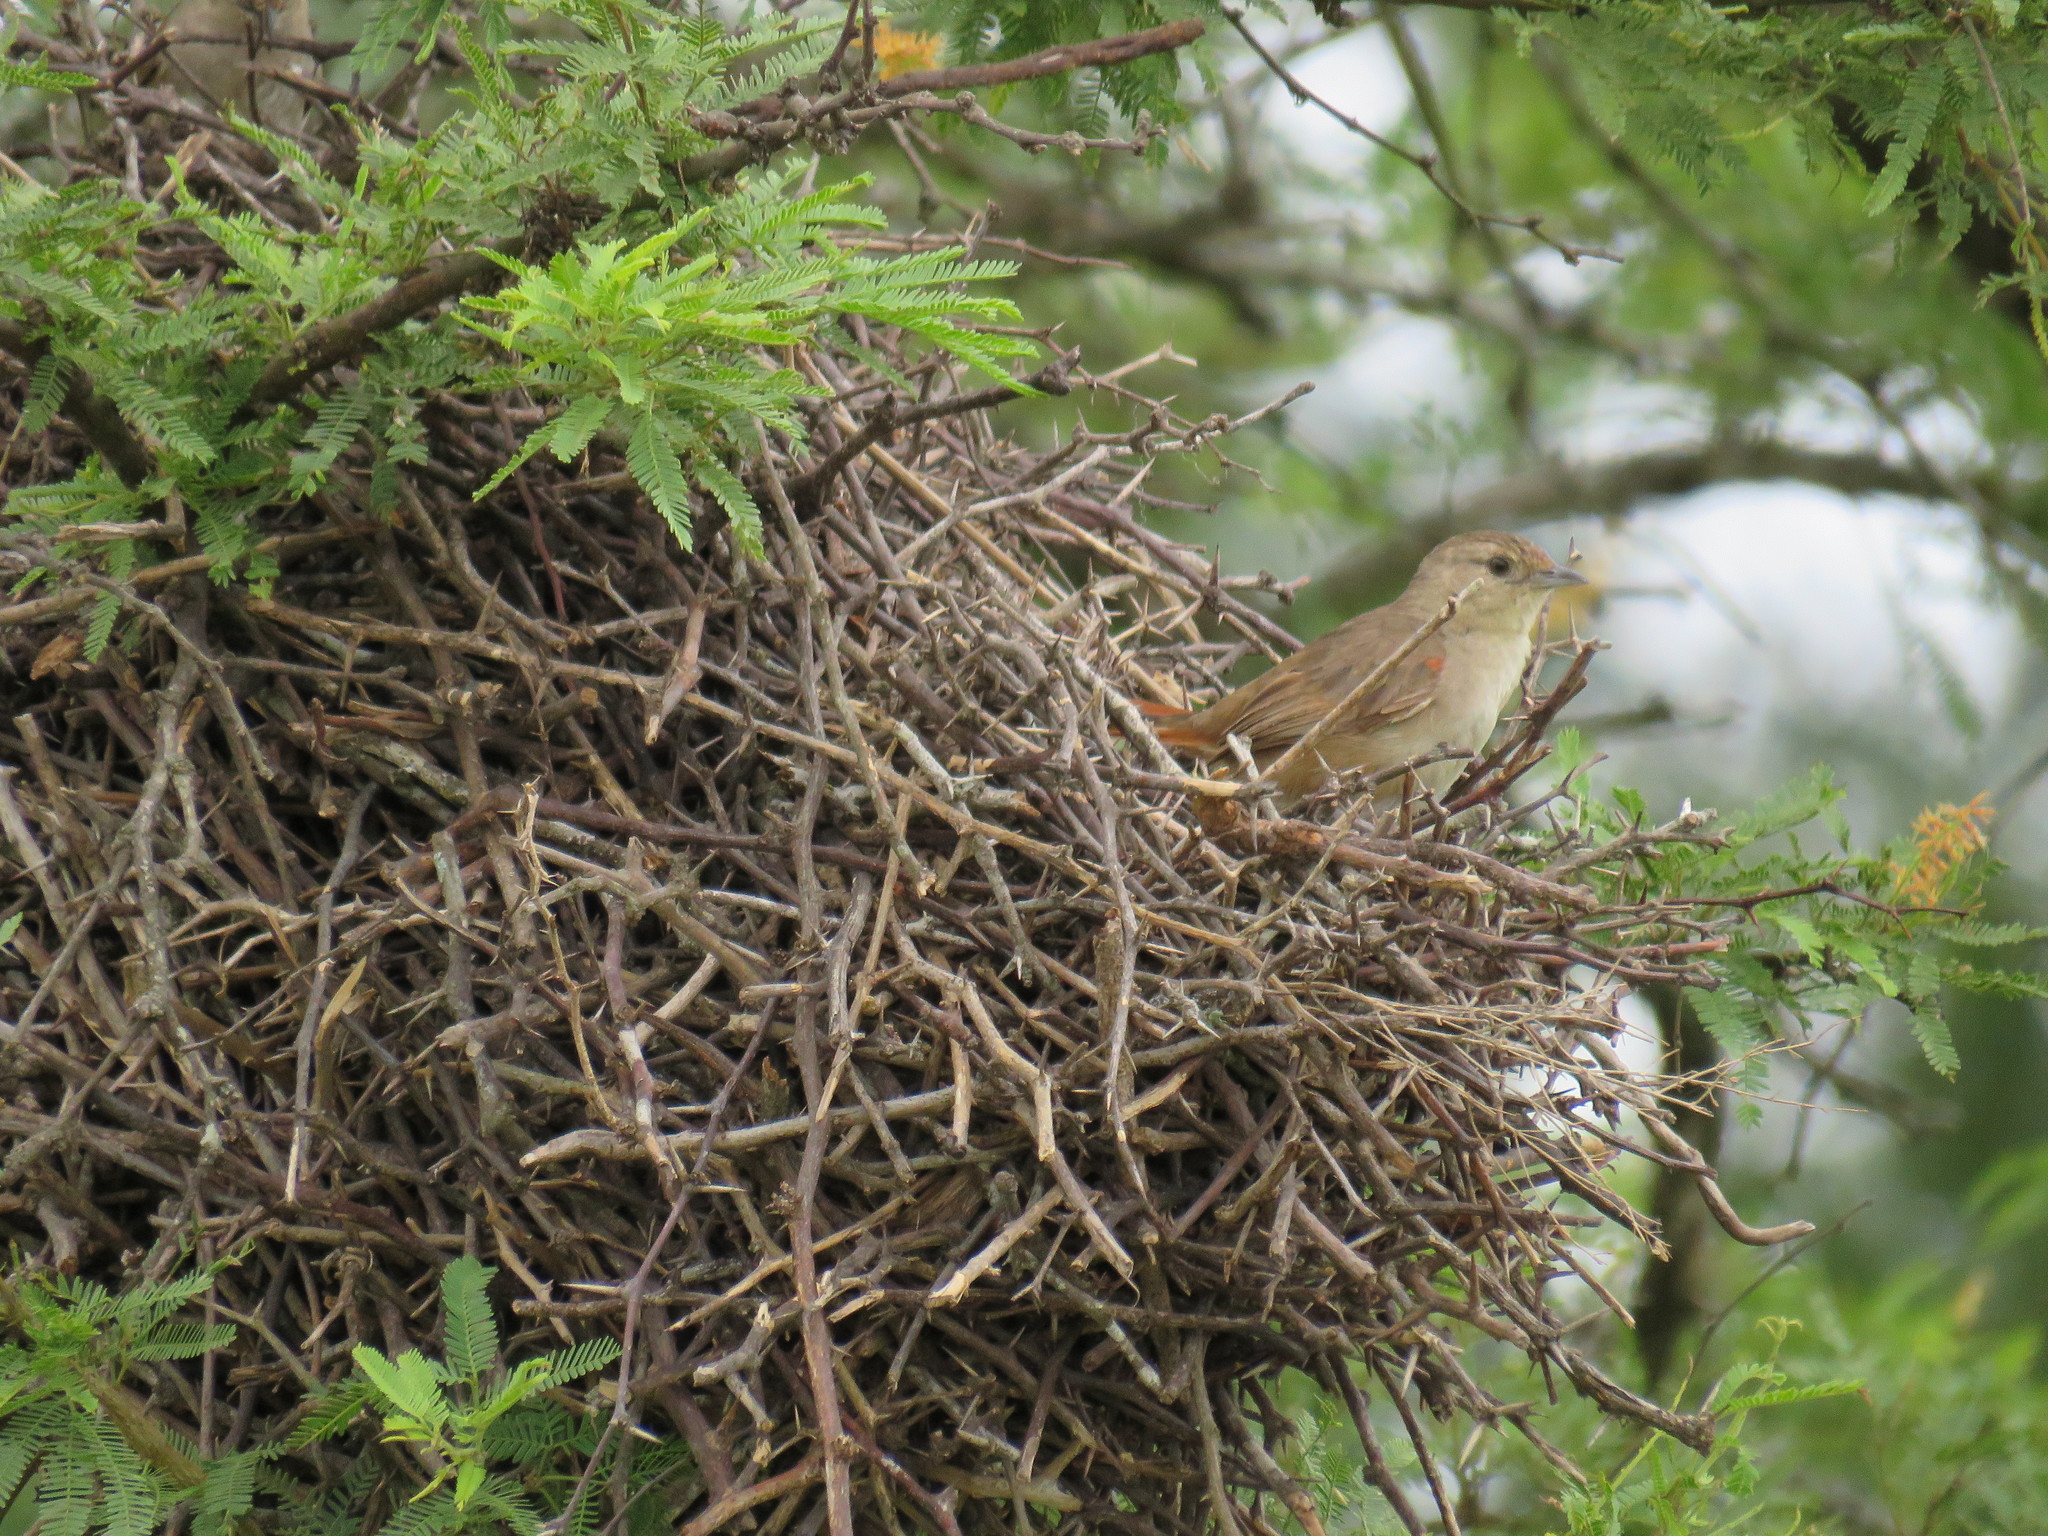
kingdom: Animalia
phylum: Chordata
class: Aves
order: Passeriformes
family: Furnariidae
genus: Phacellodomus
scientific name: Phacellodomus sibilatrix
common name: Little thornbird
